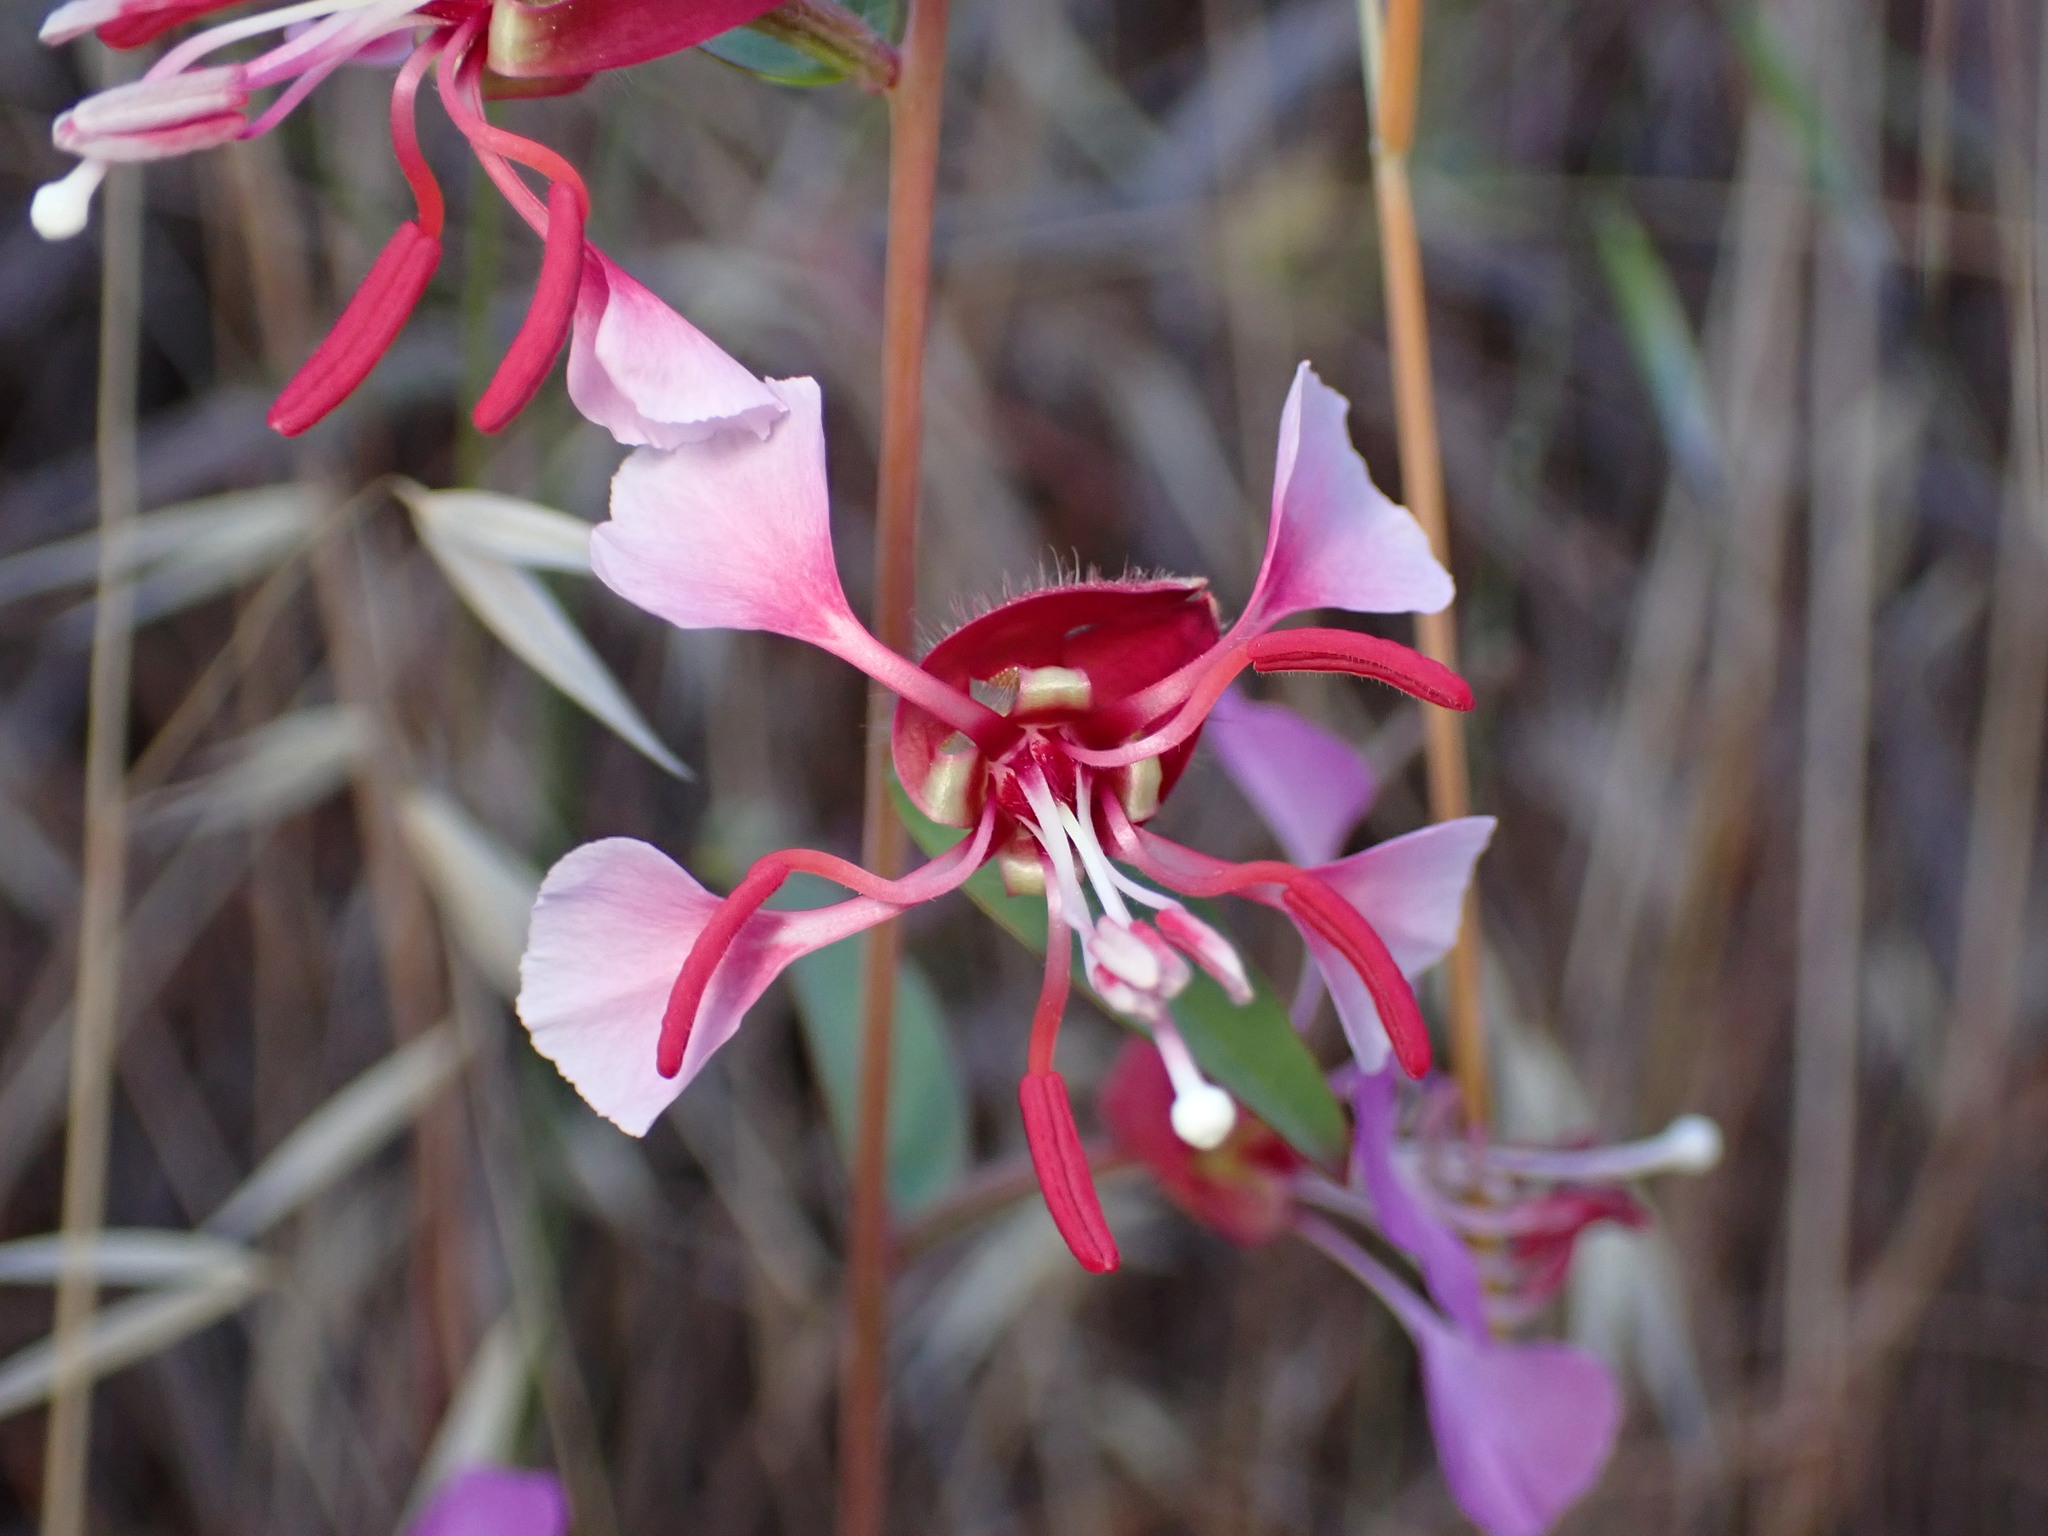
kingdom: Plantae
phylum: Tracheophyta
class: Magnoliopsida
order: Myrtales
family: Onagraceae
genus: Clarkia
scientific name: Clarkia unguiculata
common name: Clarkia
